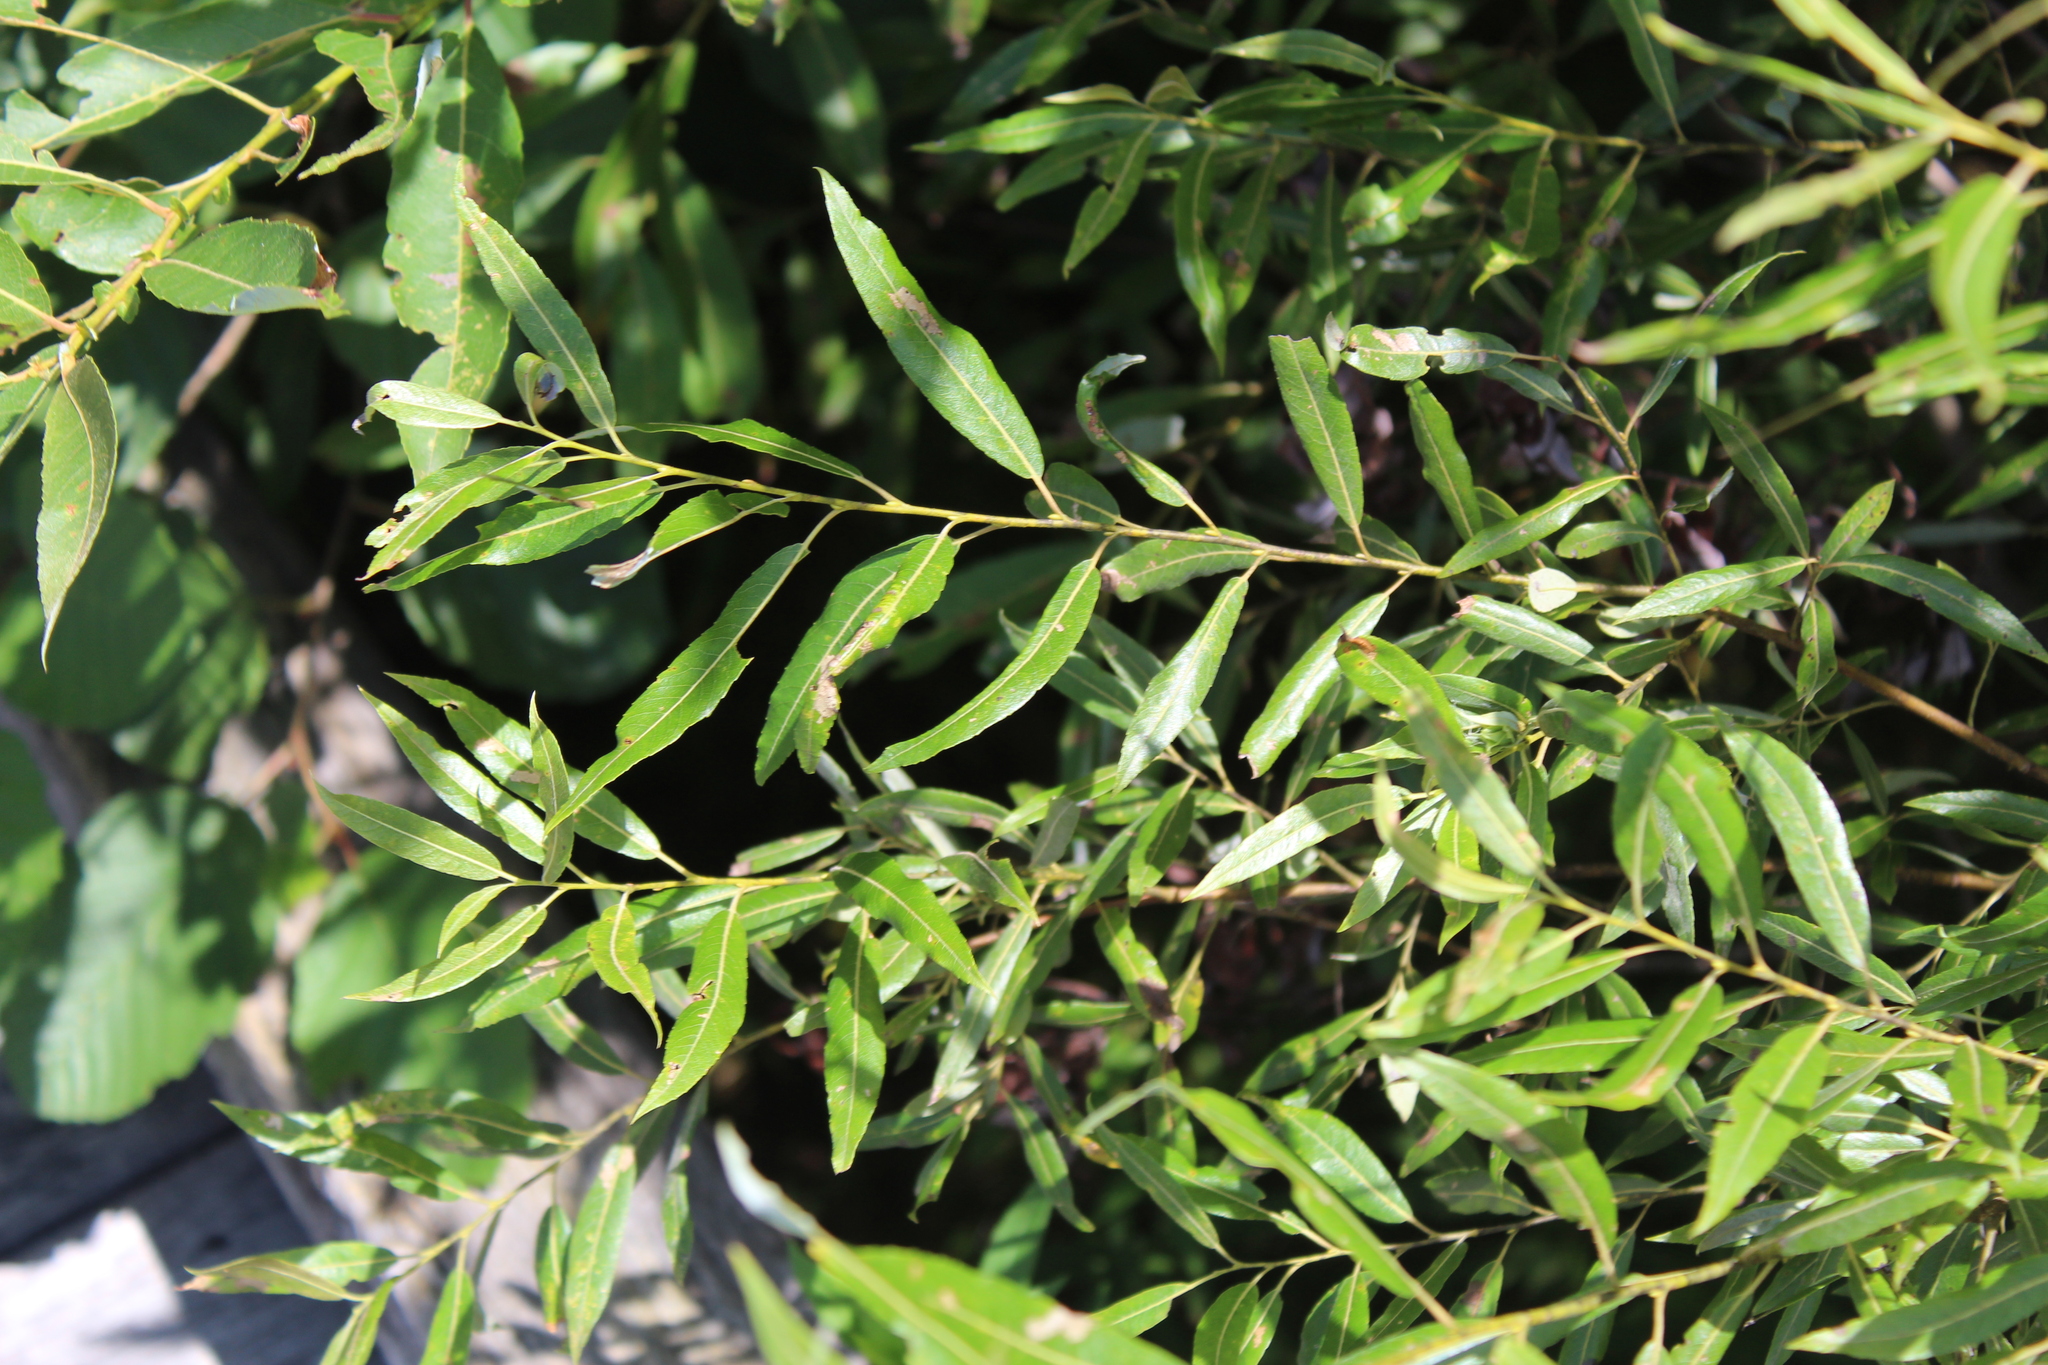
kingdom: Plantae
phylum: Tracheophyta
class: Magnoliopsida
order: Malpighiales
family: Salicaceae
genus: Salix
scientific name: Salix petiolaris
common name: Slender willow
